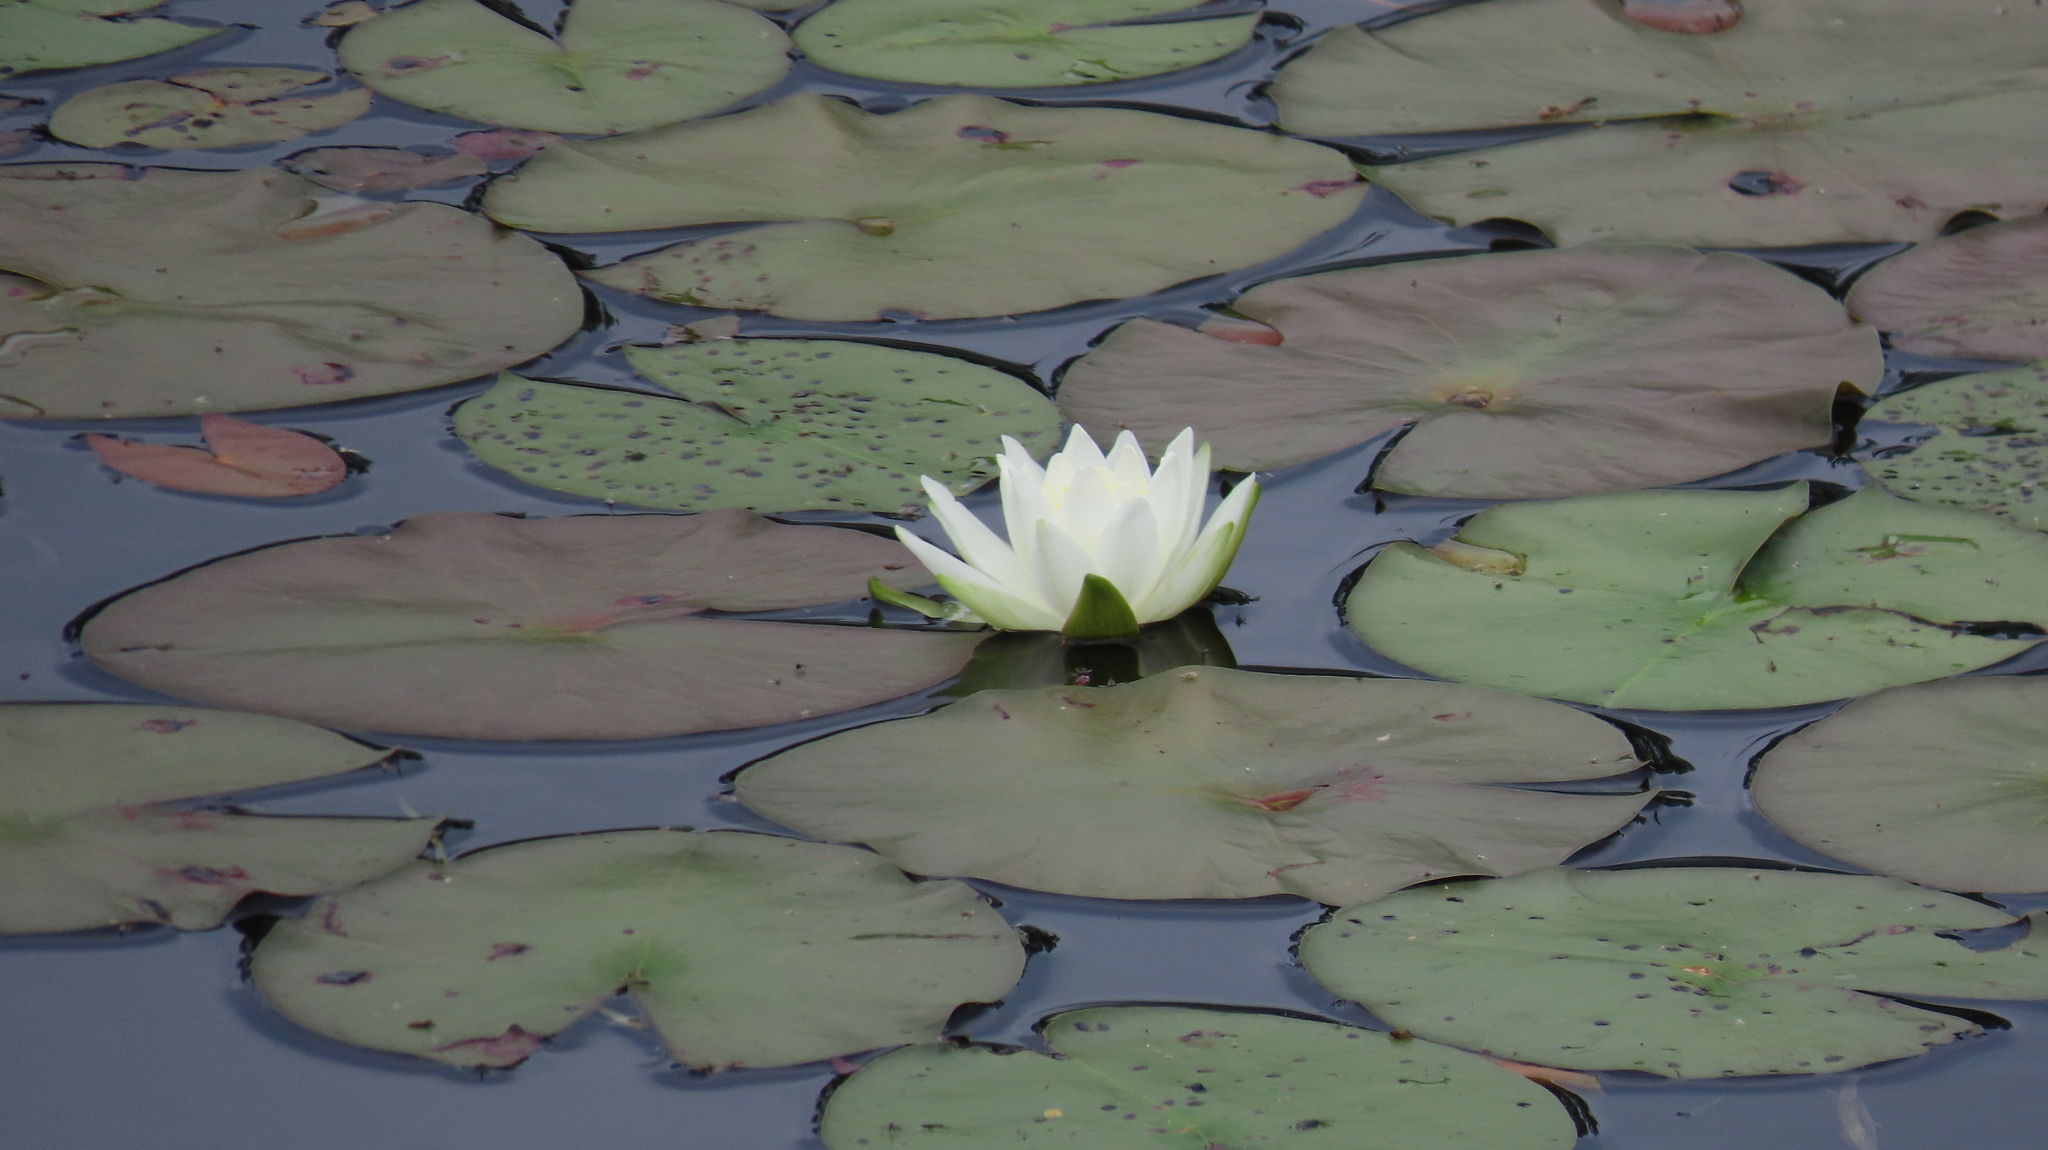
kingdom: Plantae
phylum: Tracheophyta
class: Magnoliopsida
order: Nymphaeales
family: Nymphaeaceae
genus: Nymphaea
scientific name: Nymphaea odorata
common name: Fragrant water-lily
